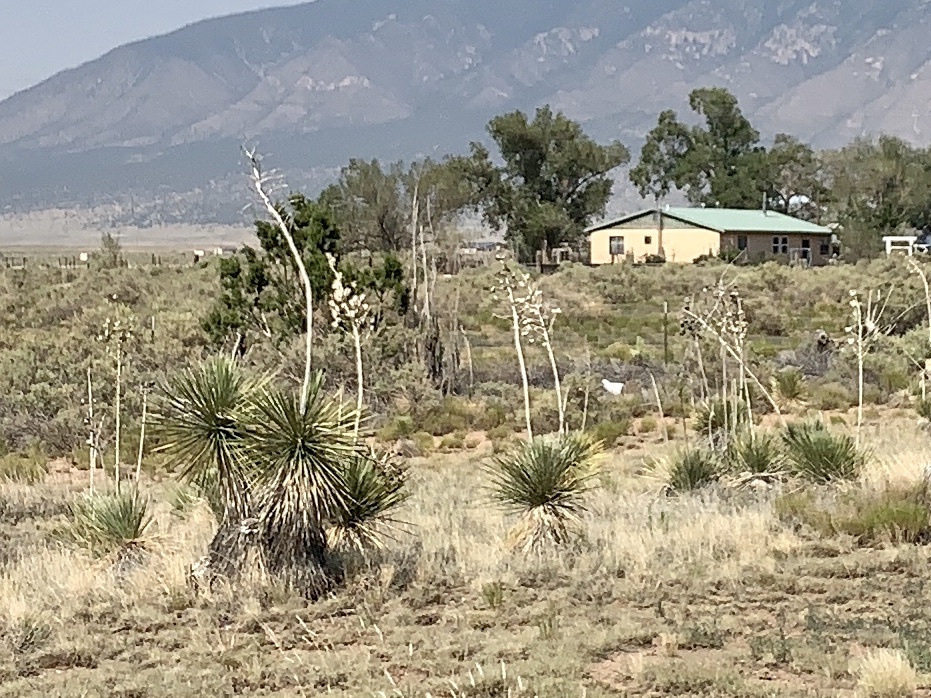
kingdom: Plantae
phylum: Tracheophyta
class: Liliopsida
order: Asparagales
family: Asparagaceae
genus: Yucca
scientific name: Yucca elata
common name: Palmella
